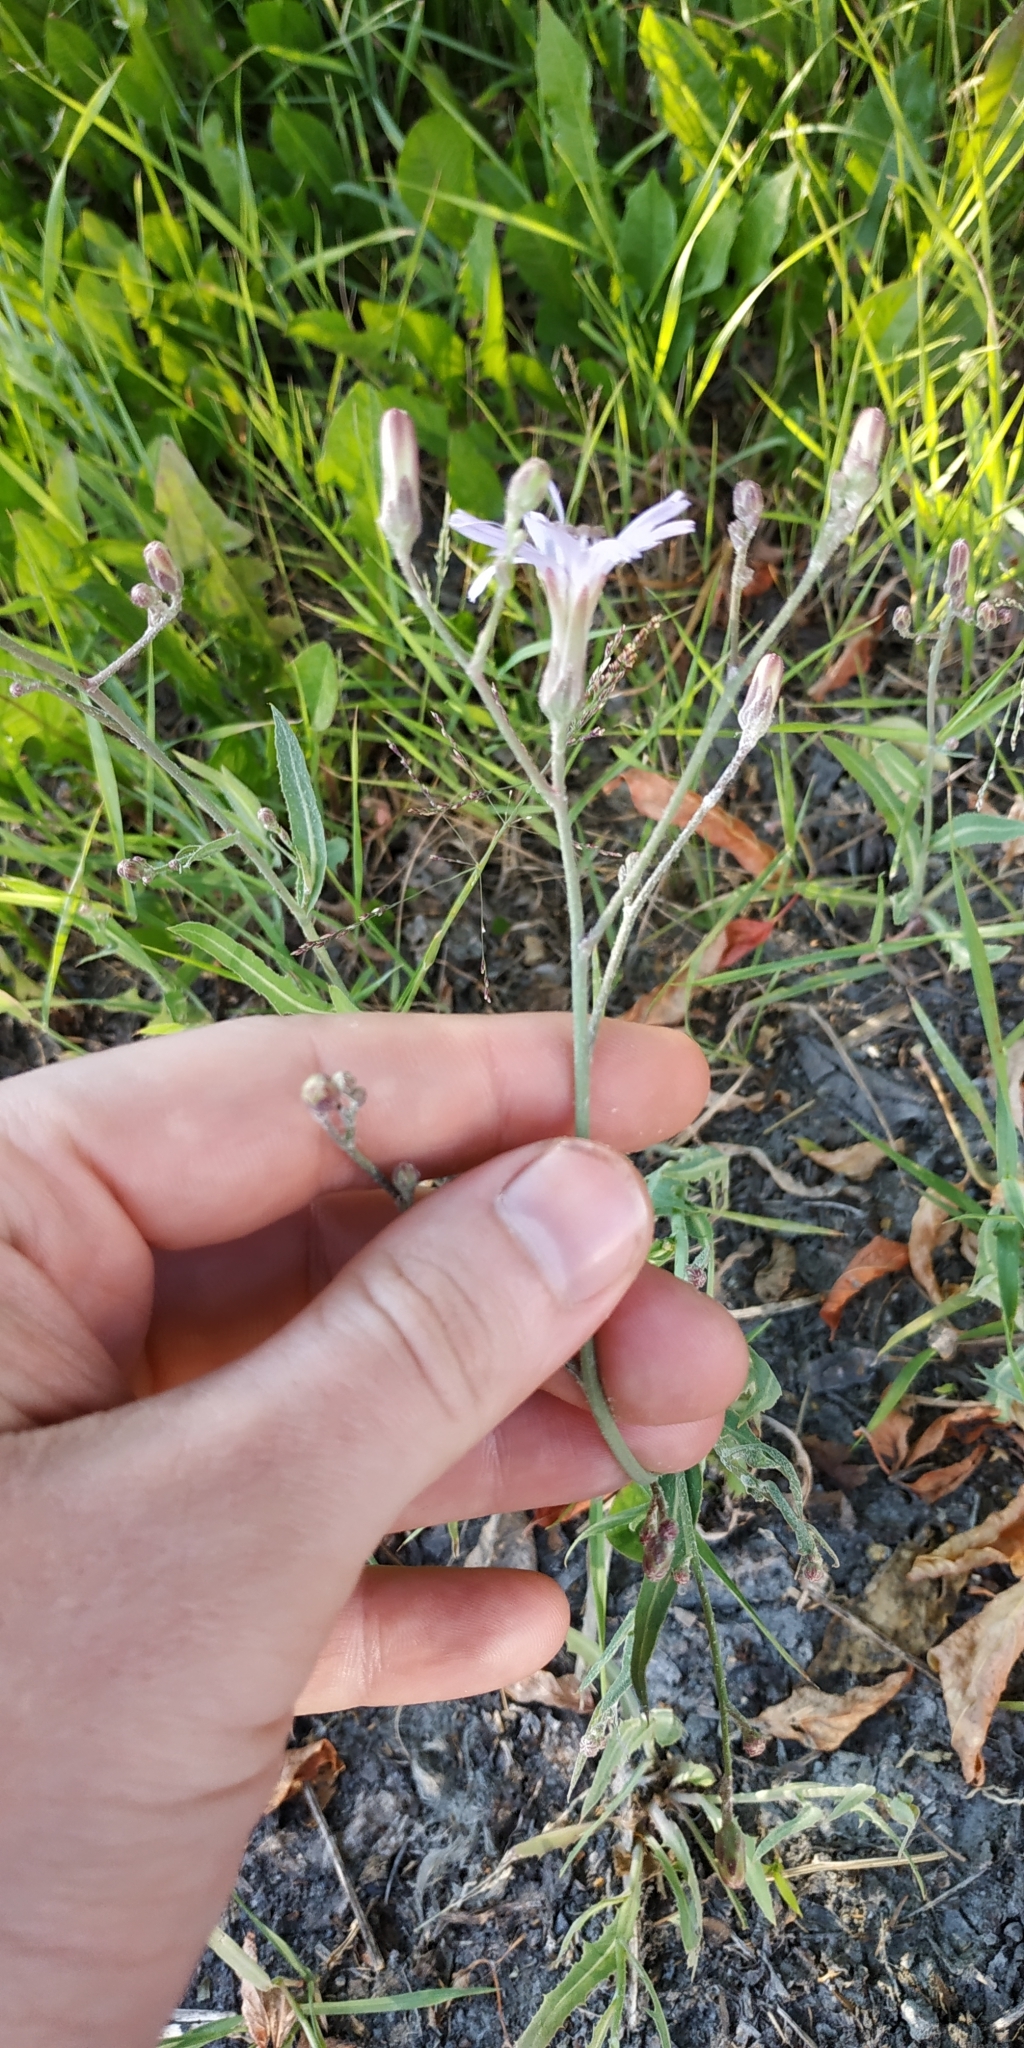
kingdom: Plantae
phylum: Tracheophyta
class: Magnoliopsida
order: Asterales
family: Asteraceae
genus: Lactuca
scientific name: Lactuca tatarica
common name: Blue lettuce
